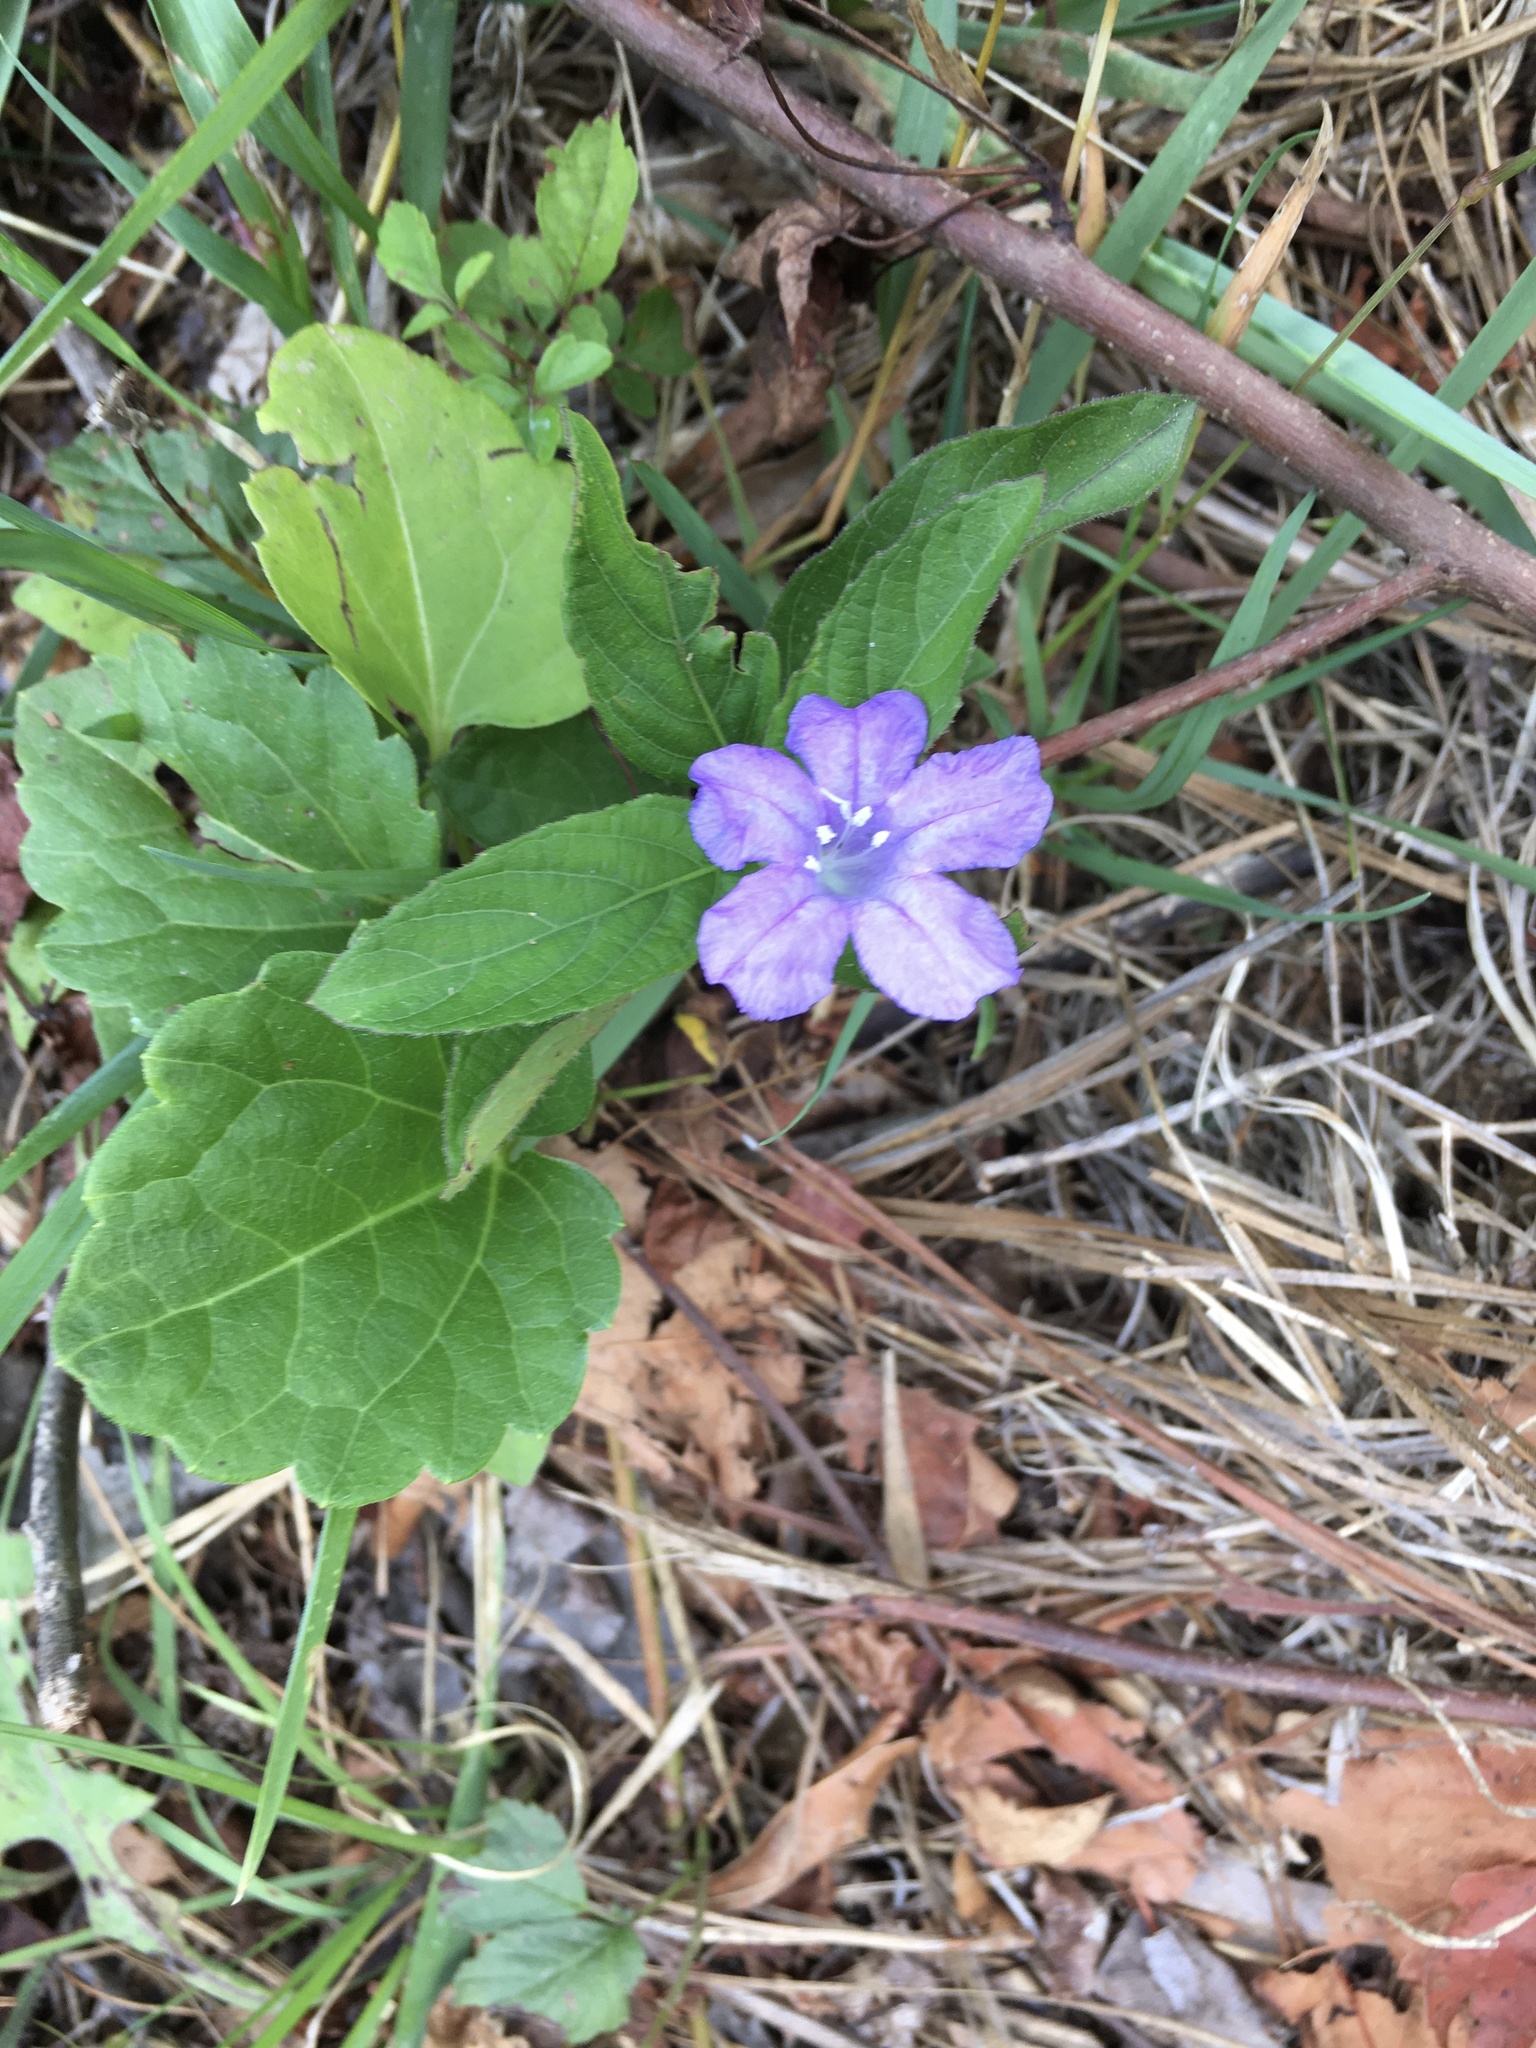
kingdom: Plantae
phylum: Tracheophyta
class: Magnoliopsida
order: Lamiales
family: Acanthaceae
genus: Ruellia
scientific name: Ruellia caroliniensis
